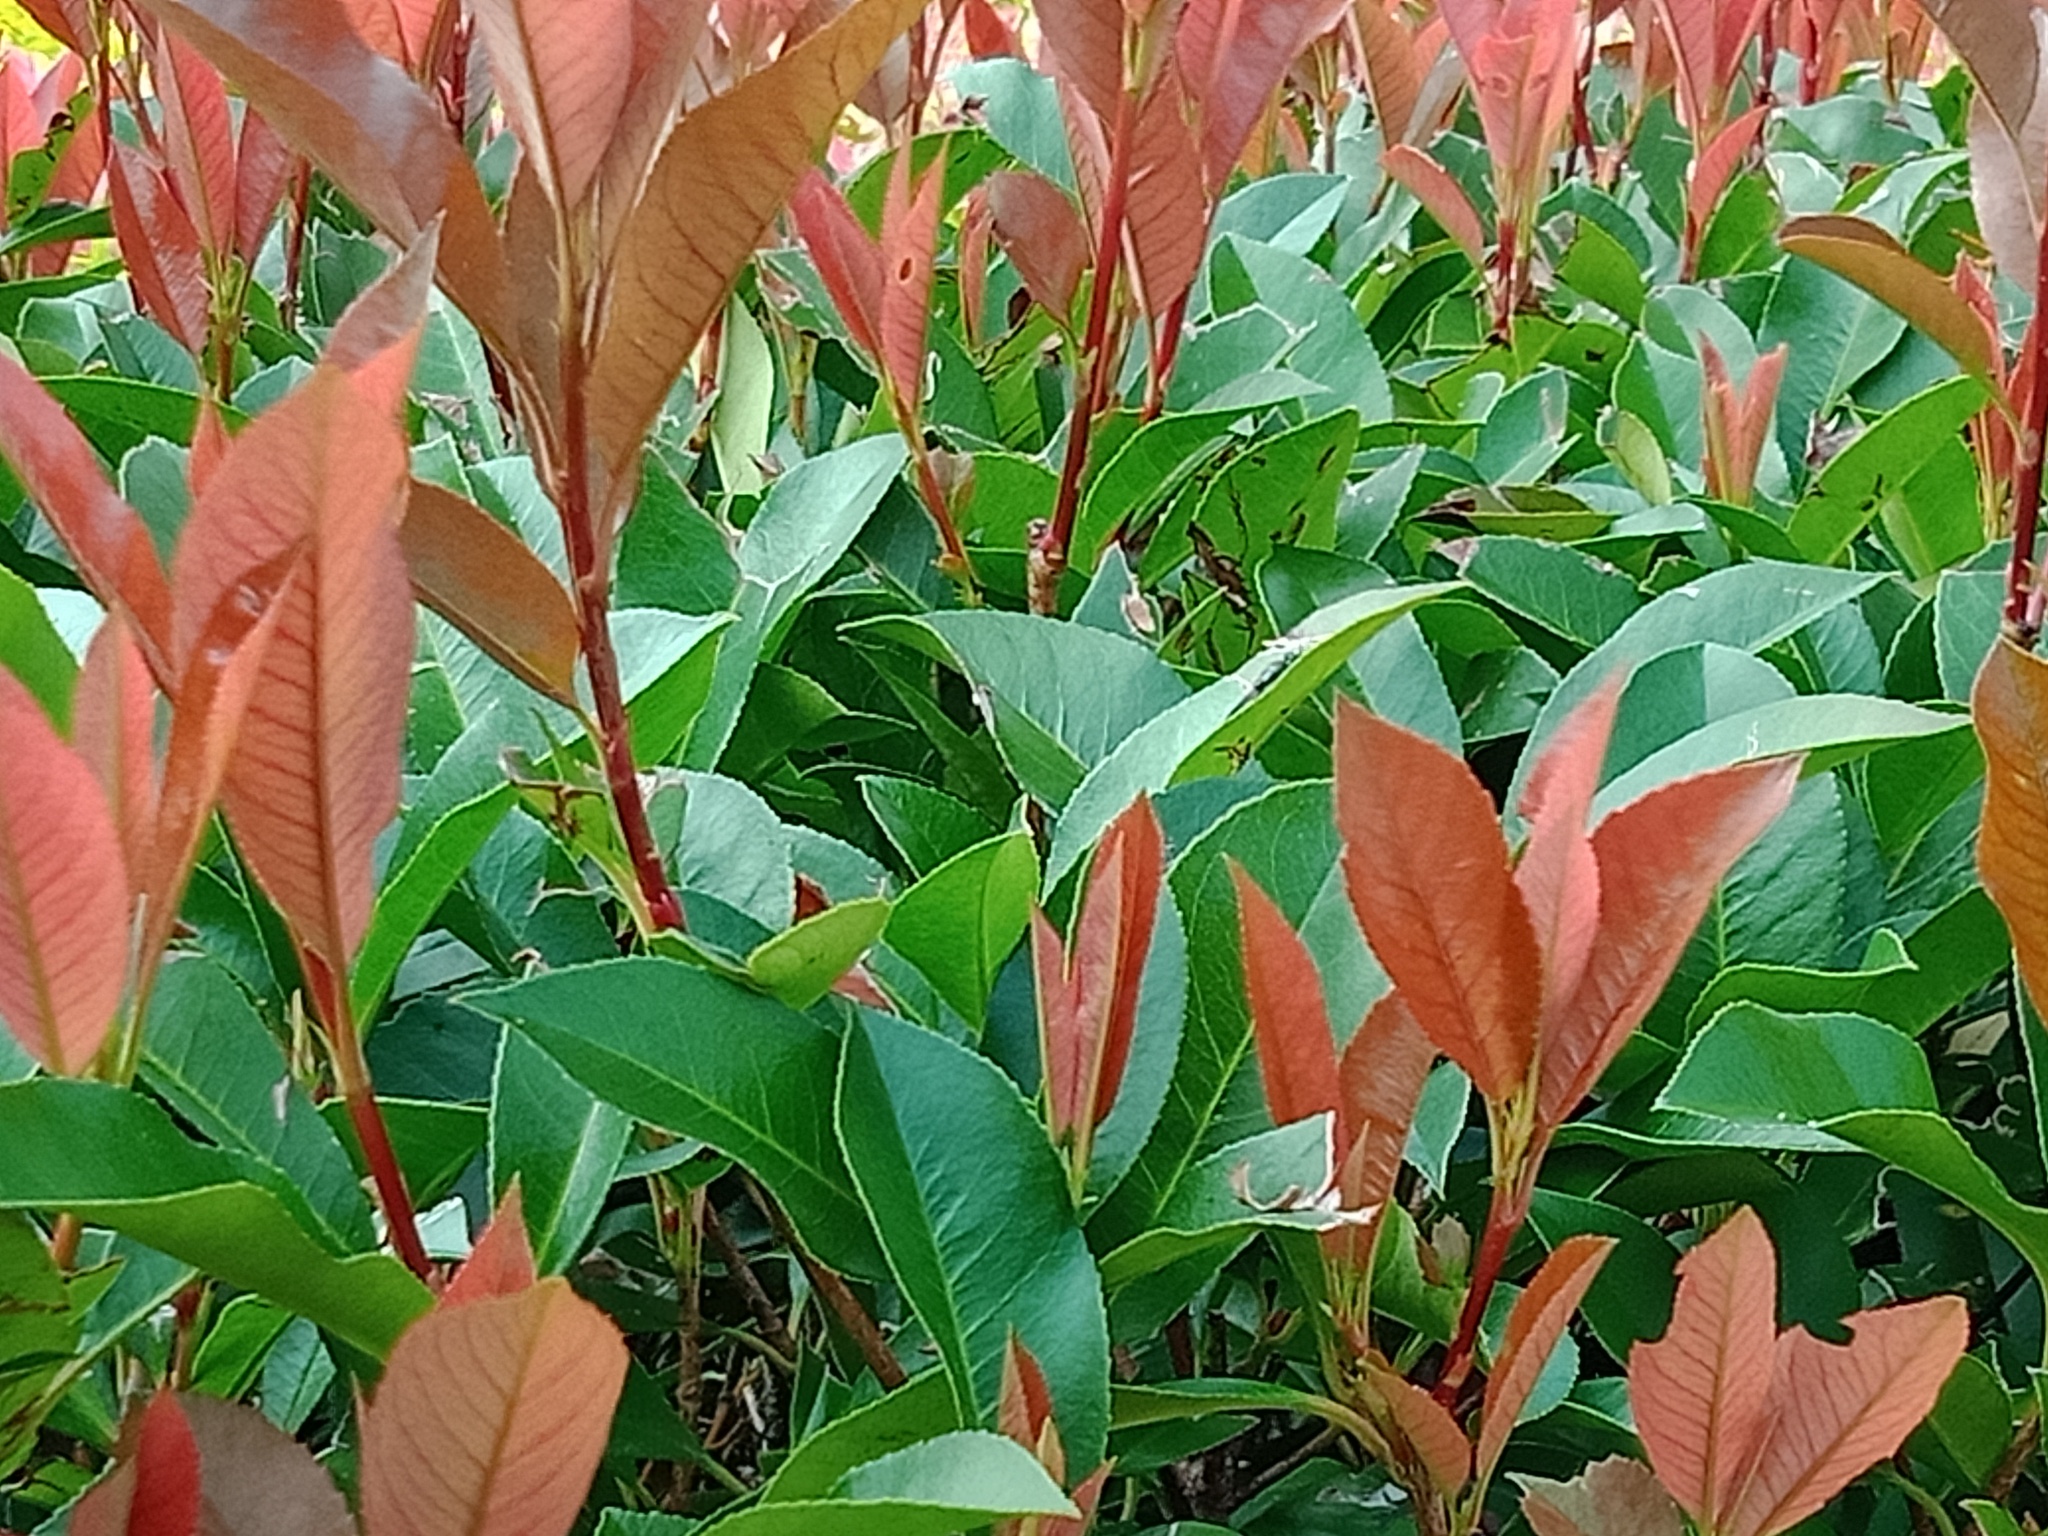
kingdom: Animalia
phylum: Arthropoda
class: Insecta
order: Diptera
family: Stratiomyidae
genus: Hermetia
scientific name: Hermetia illucens
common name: Black soldier fly
